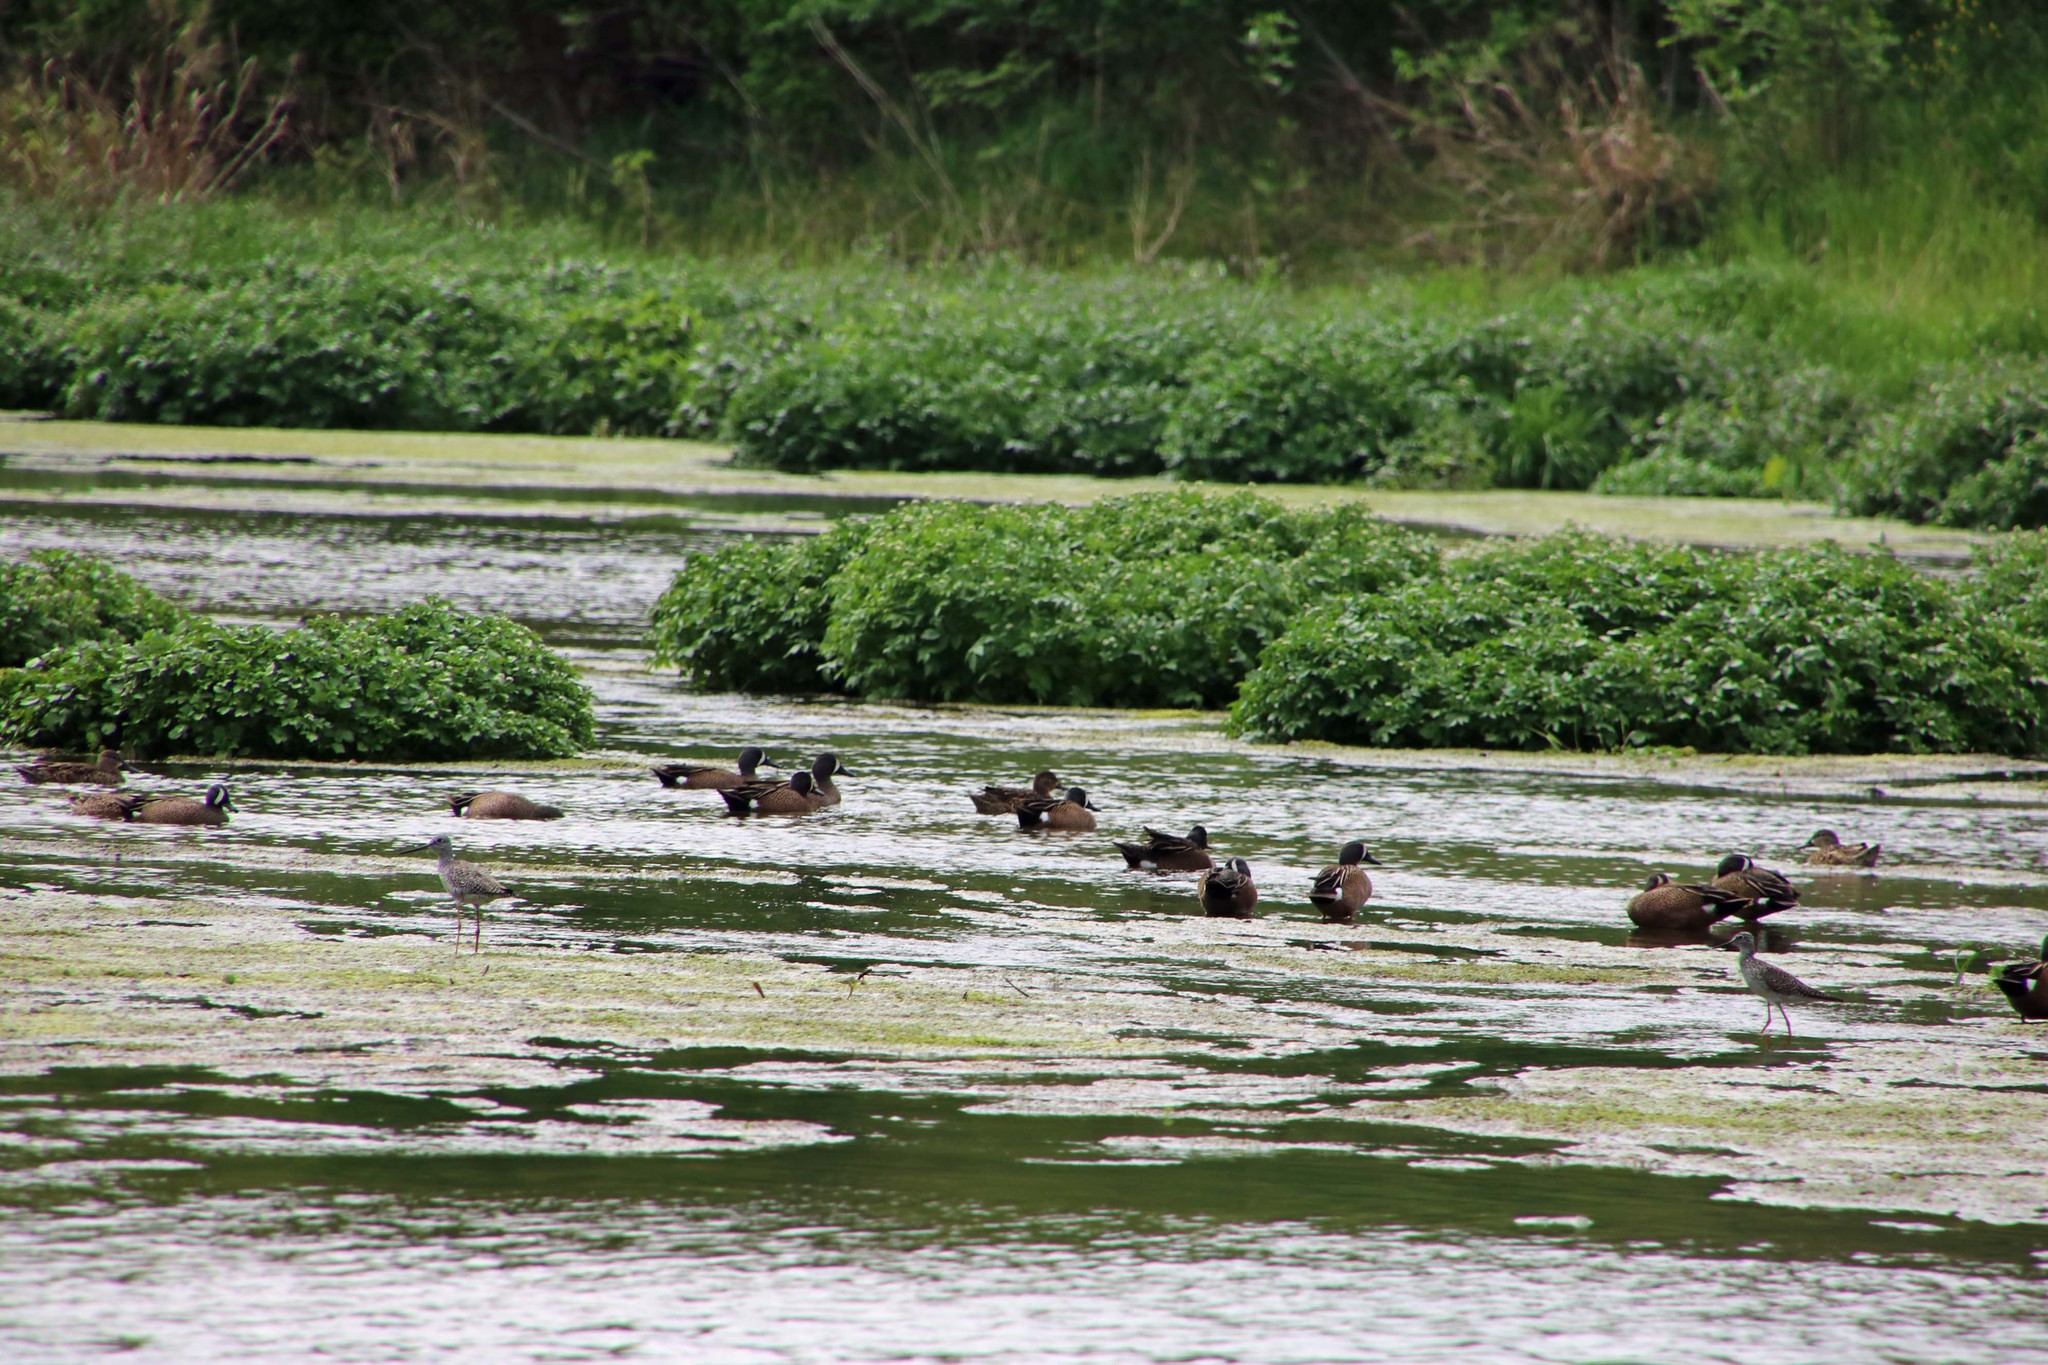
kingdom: Animalia
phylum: Chordata
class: Aves
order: Anseriformes
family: Anatidae
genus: Spatula
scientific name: Spatula discors
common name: Blue-winged teal
